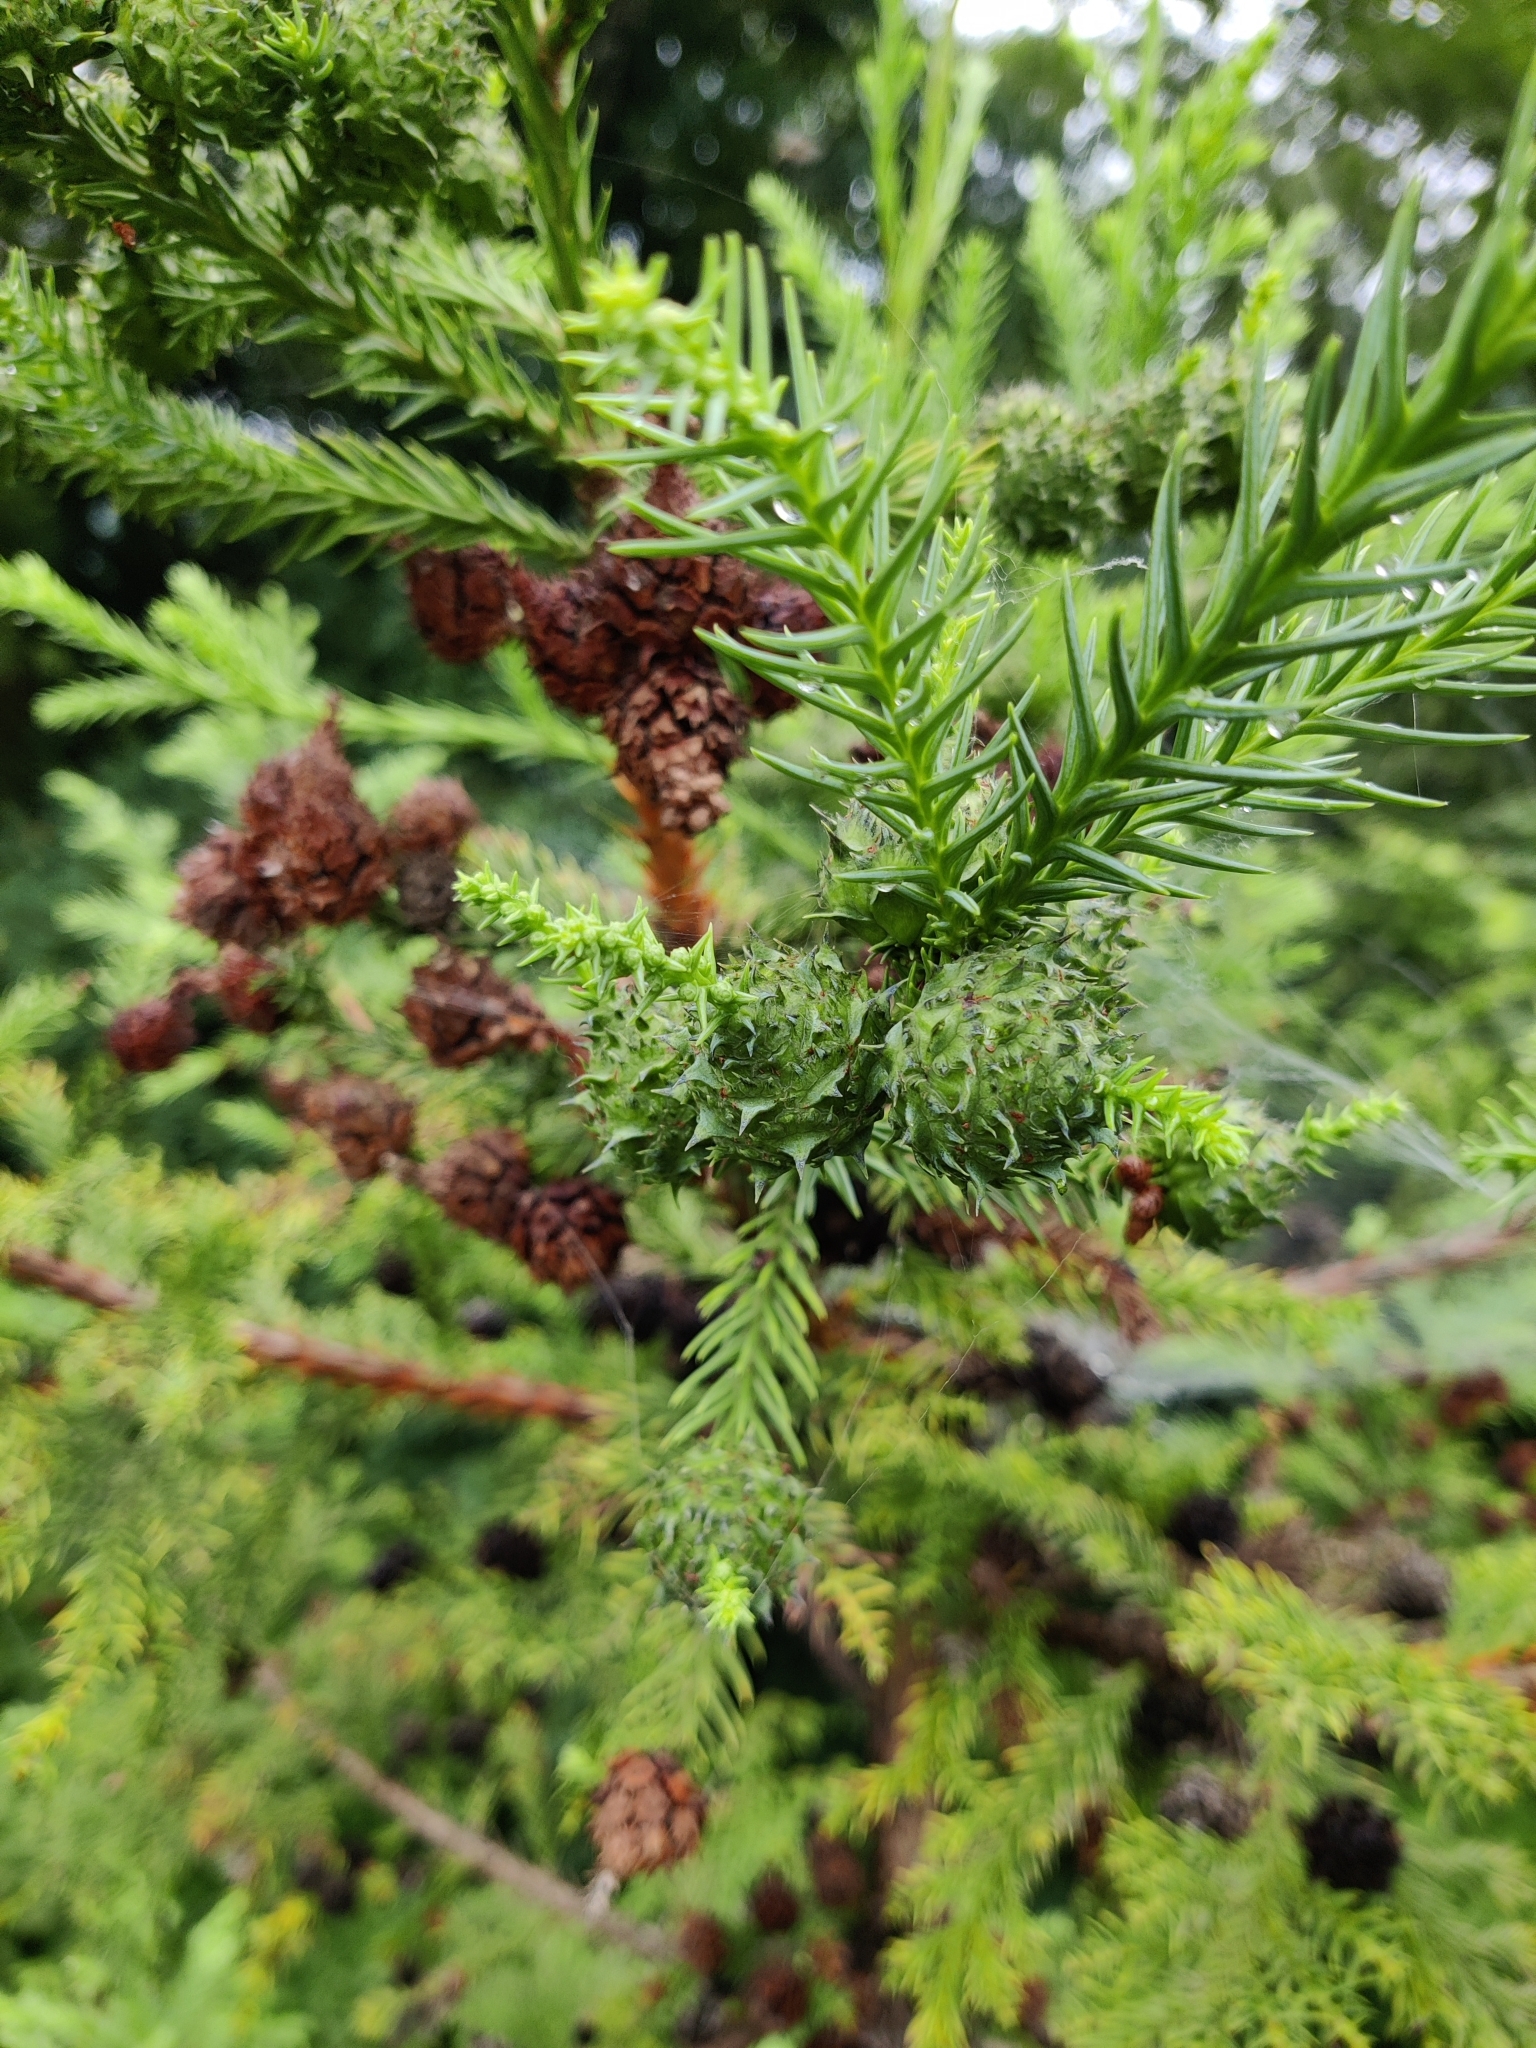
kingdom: Plantae
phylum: Tracheophyta
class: Pinopsida
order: Pinales
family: Cupressaceae
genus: Cryptomeria
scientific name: Cryptomeria japonica
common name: Japanese cedar
